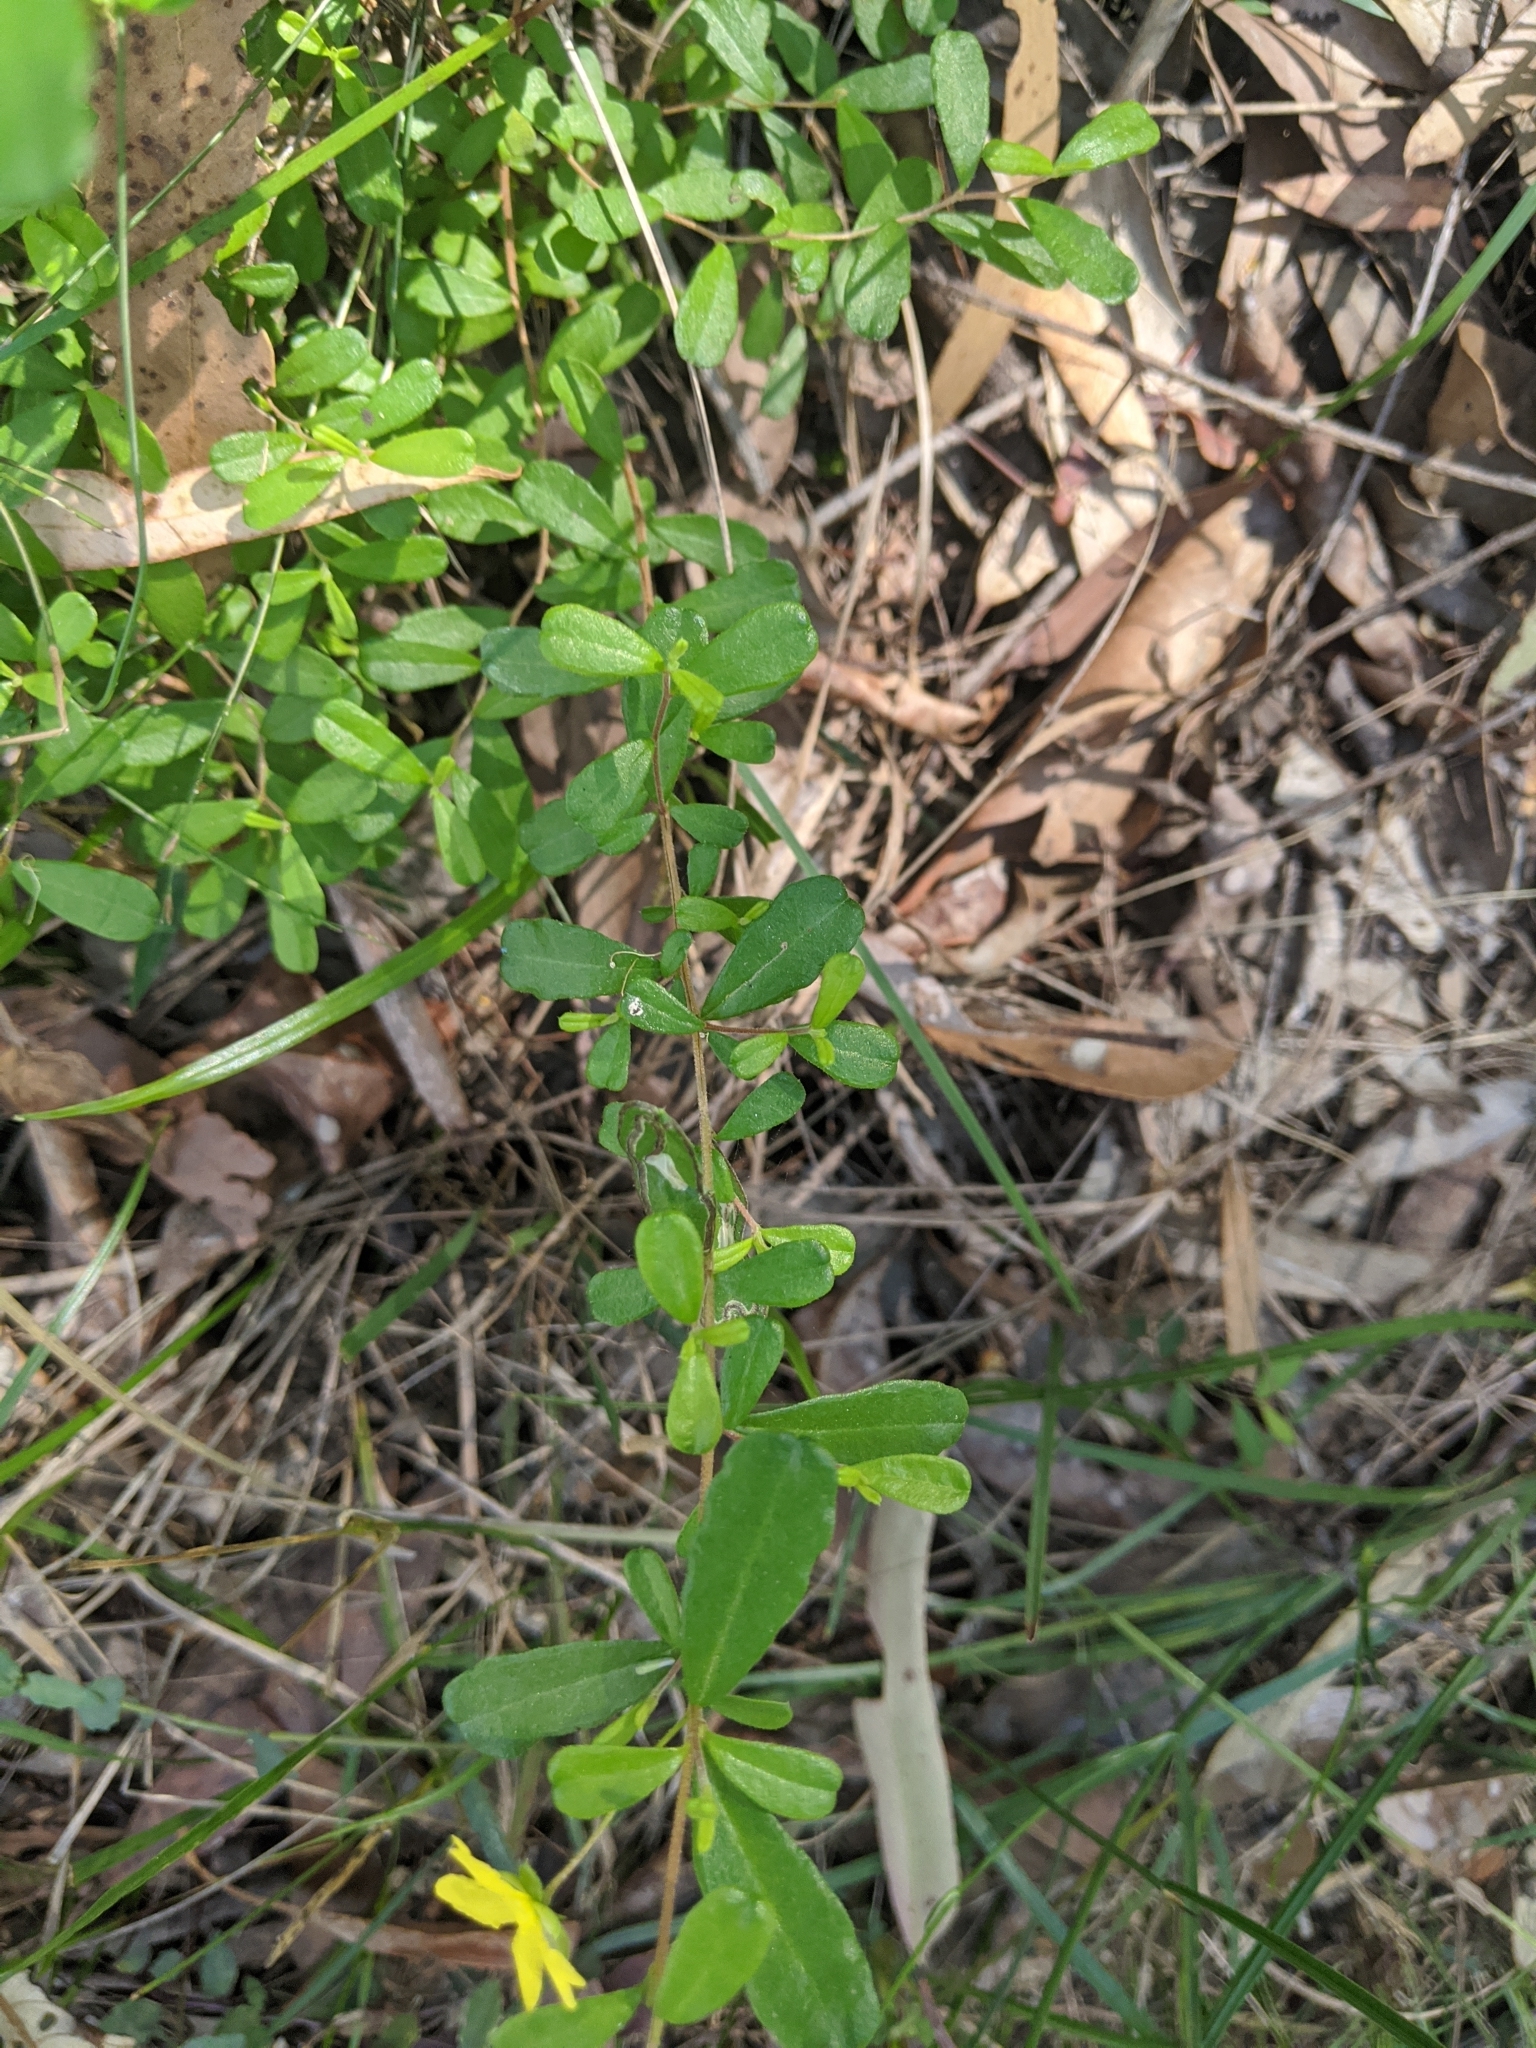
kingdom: Plantae
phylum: Tracheophyta
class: Magnoliopsida
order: Dilleniales
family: Dilleniaceae
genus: Hibbertia
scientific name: Hibbertia aspera
